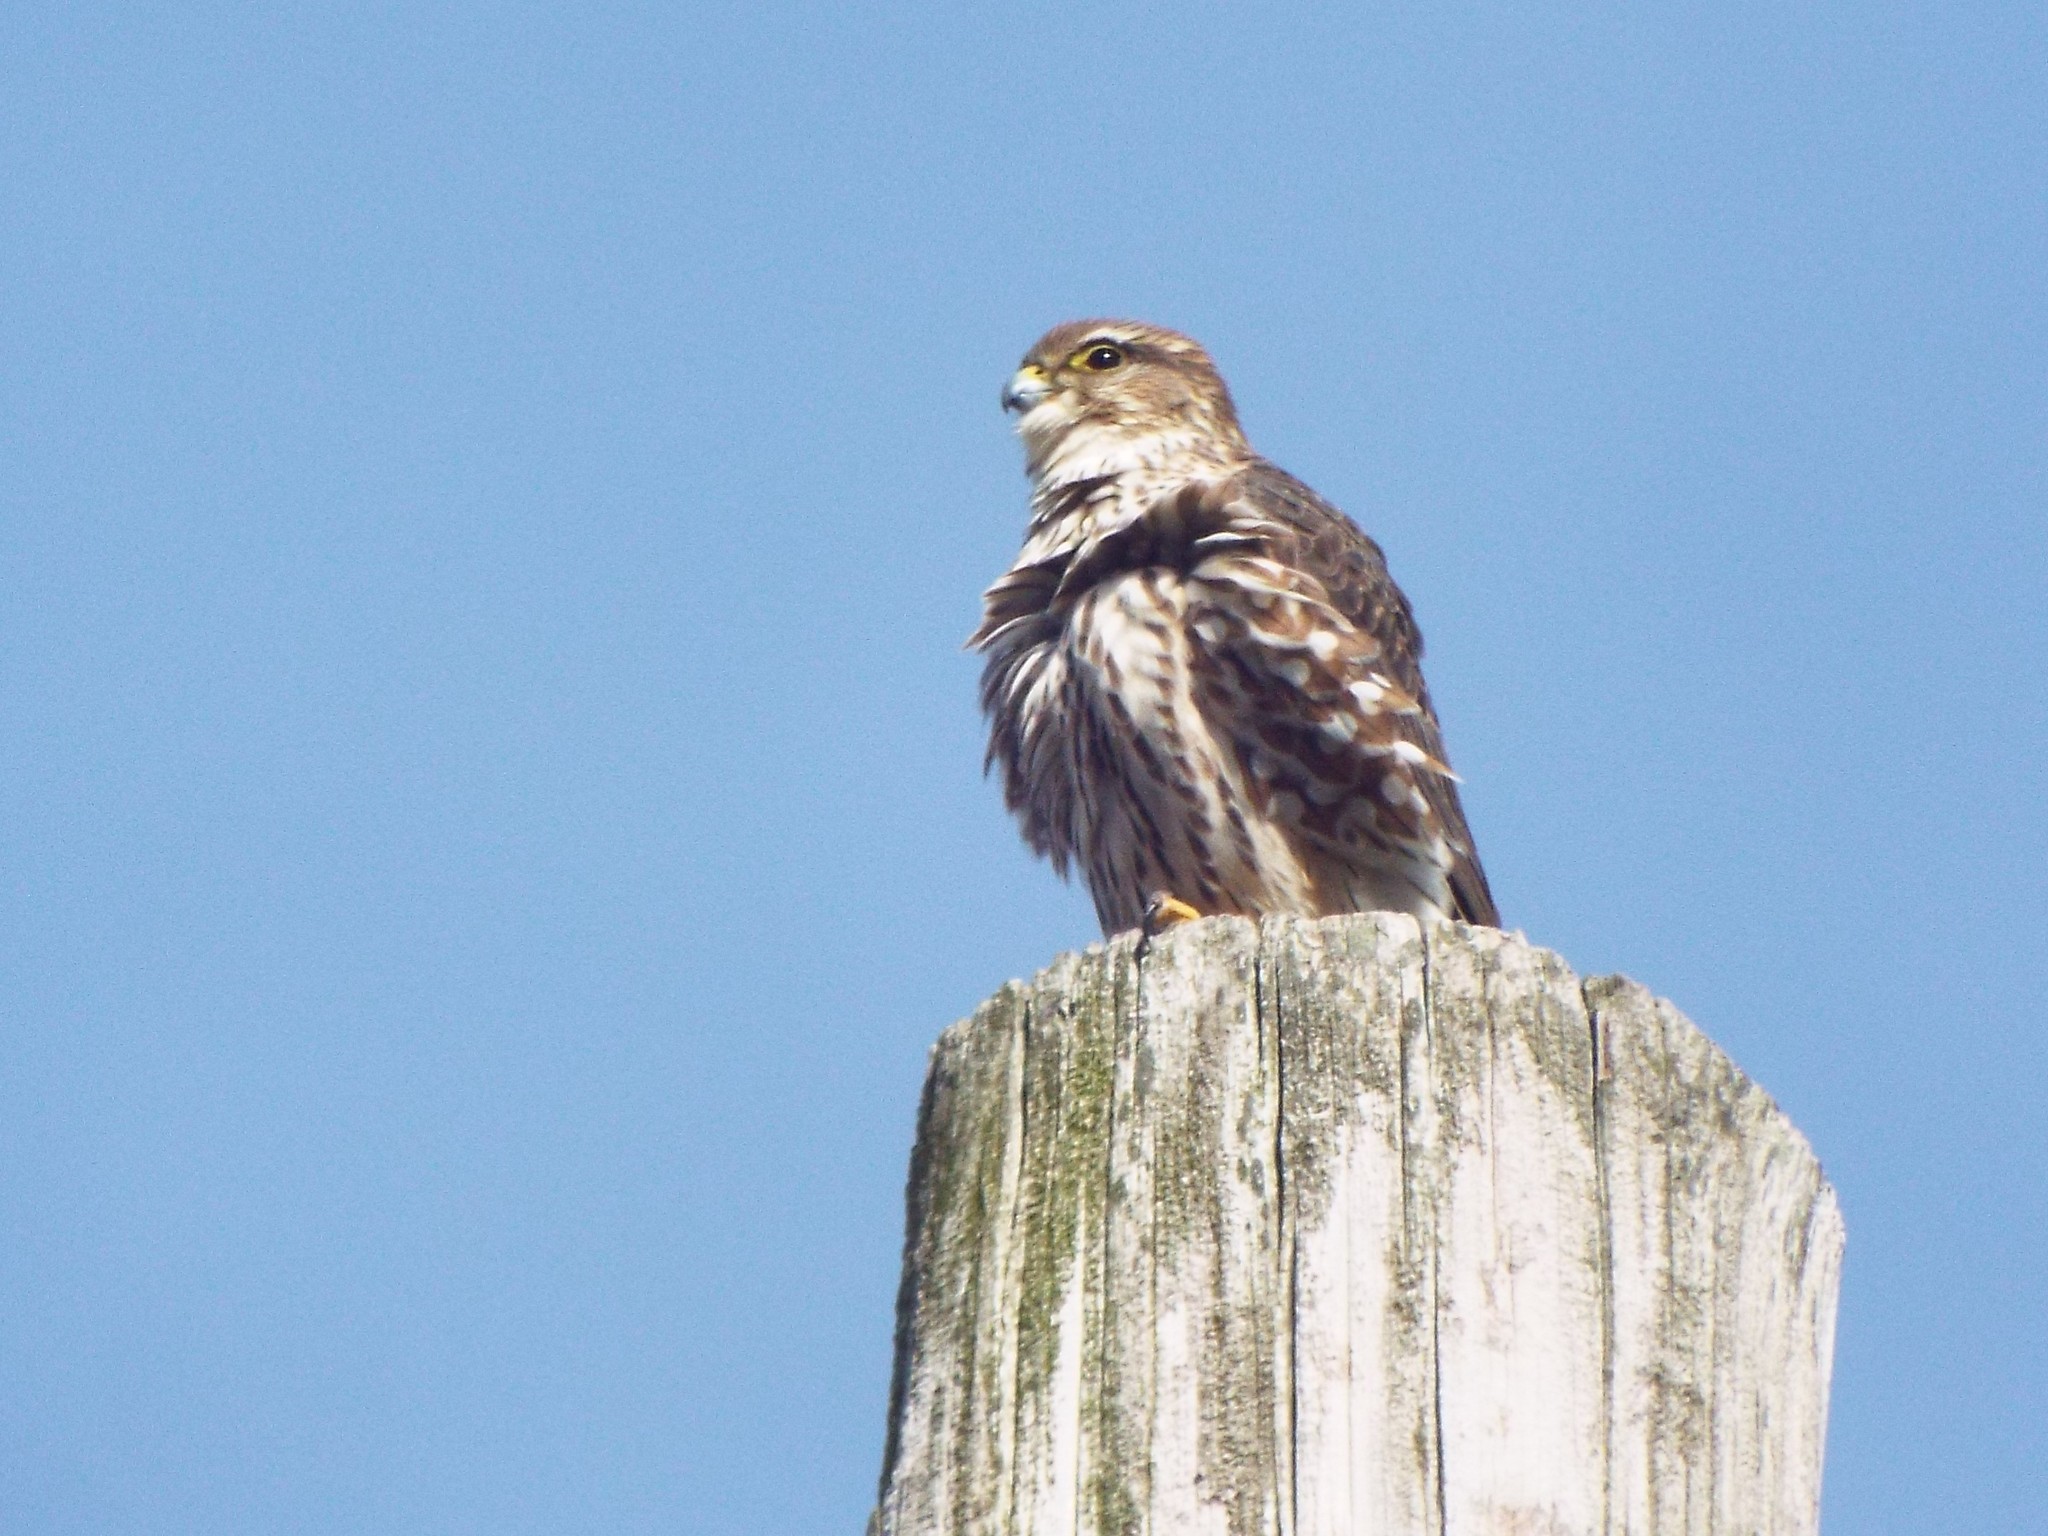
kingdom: Animalia
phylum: Chordata
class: Aves
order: Falconiformes
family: Falconidae
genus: Falco
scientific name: Falco columbarius
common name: Merlin
